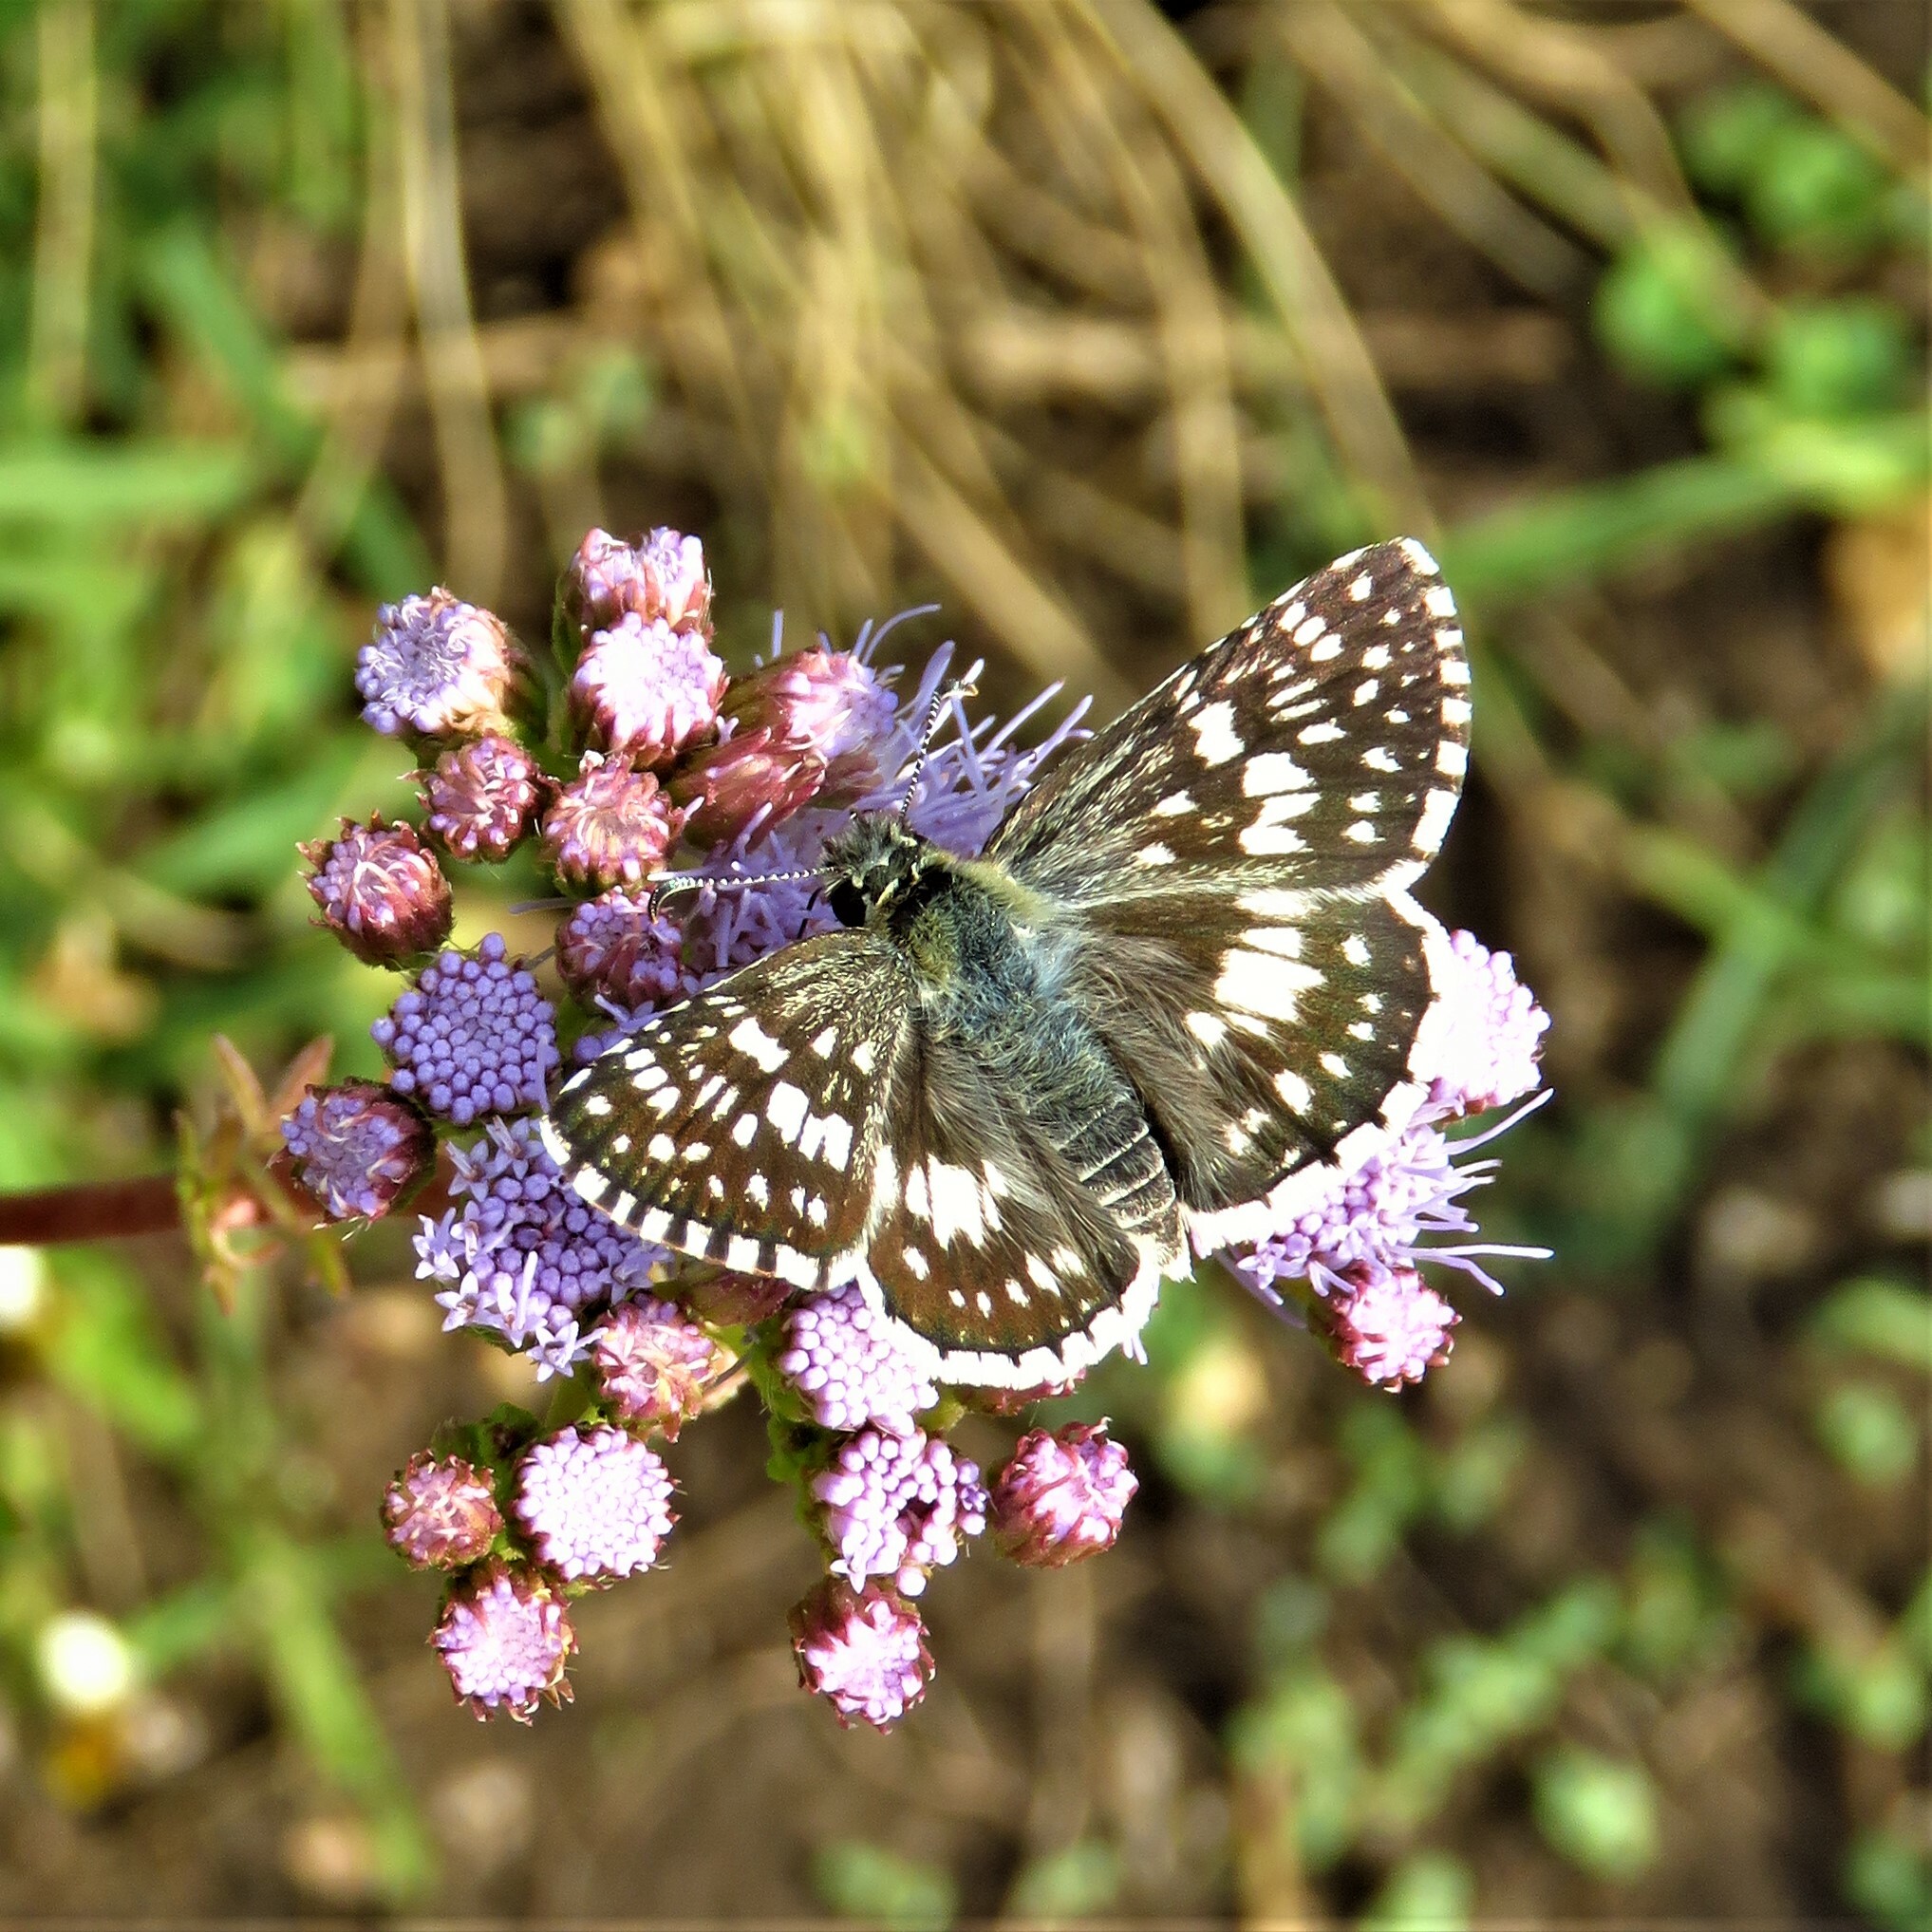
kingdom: Animalia
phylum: Arthropoda
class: Insecta
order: Lepidoptera
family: Hesperiidae
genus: Burnsius
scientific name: Burnsius
